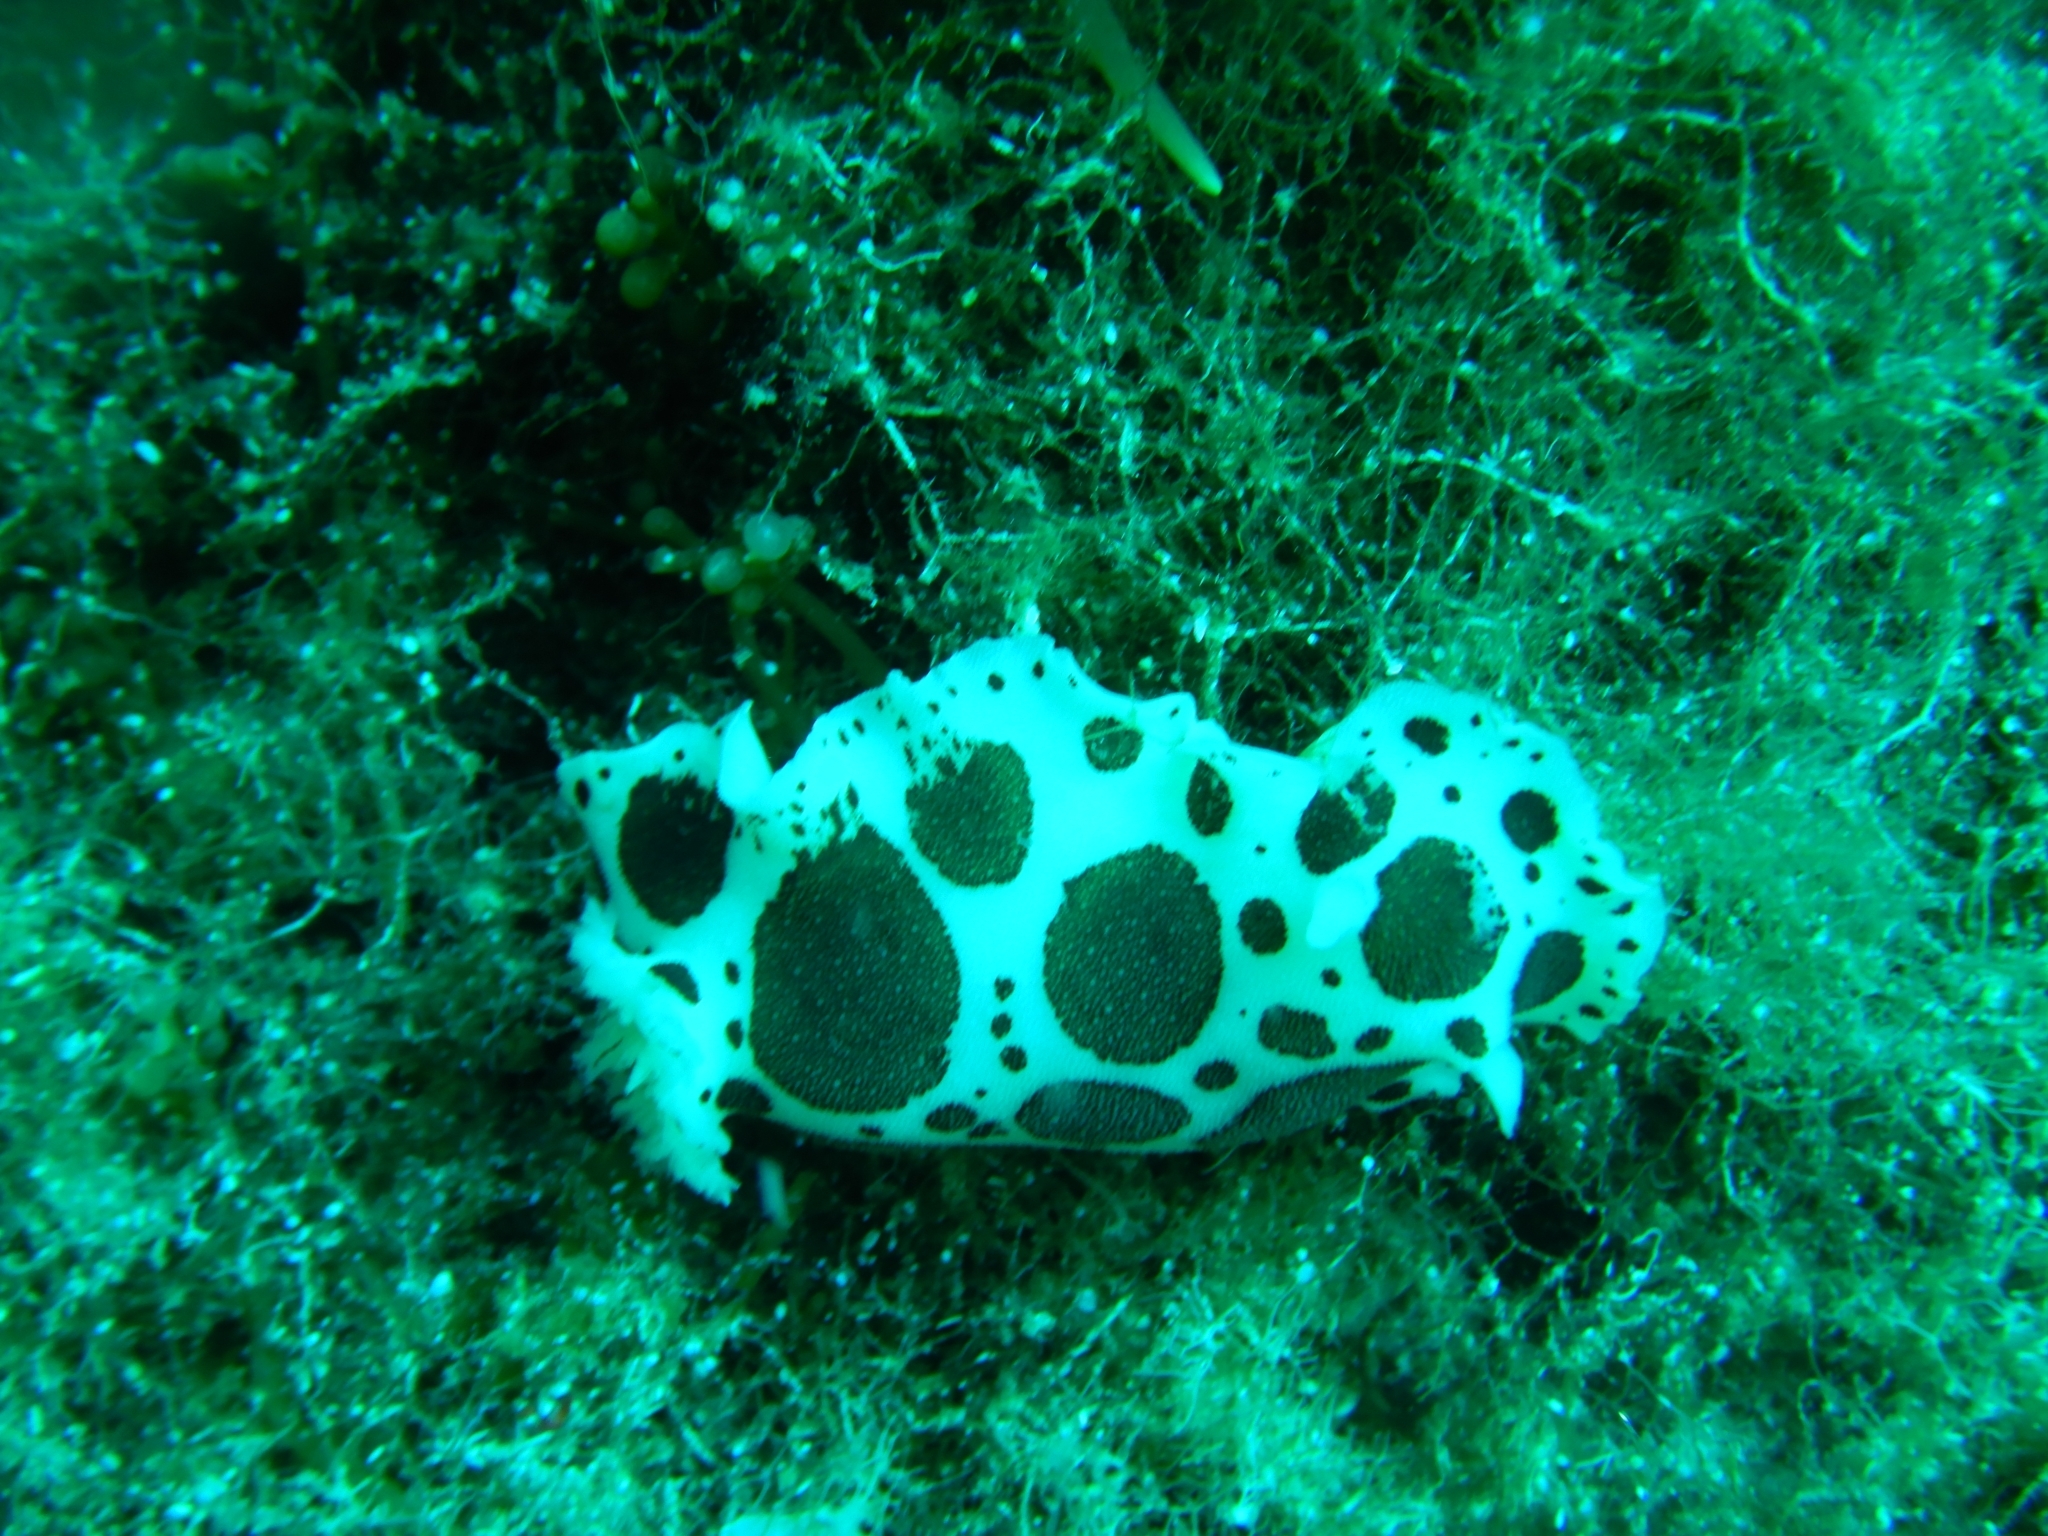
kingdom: Animalia
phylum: Mollusca
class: Gastropoda
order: Nudibranchia
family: Discodorididae
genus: Peltodoris
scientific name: Peltodoris atromaculata
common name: Swiss cow nudibranch
